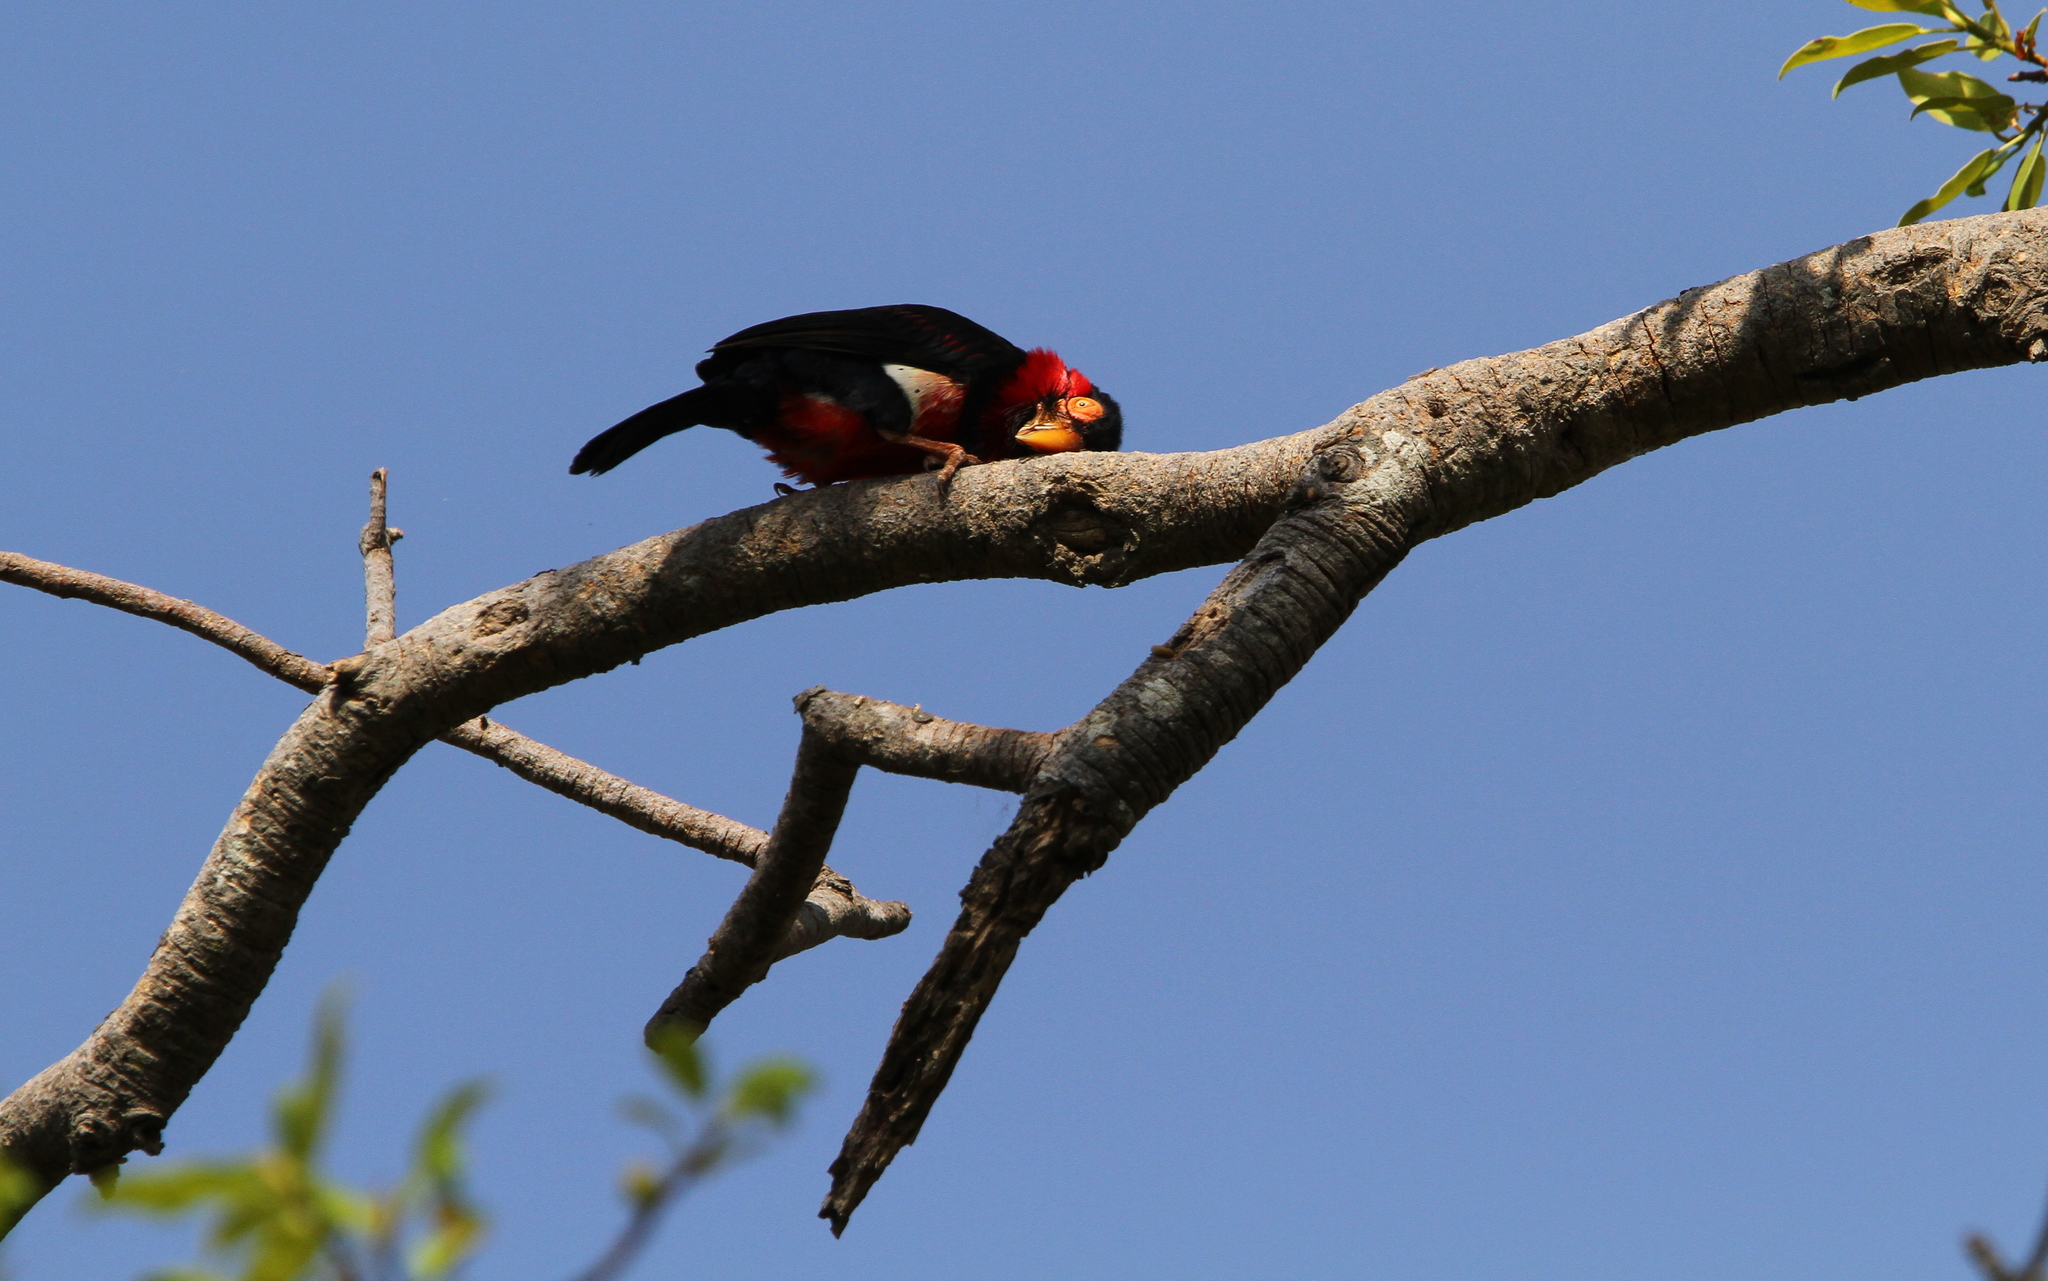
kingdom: Animalia
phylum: Chordata
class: Aves
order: Piciformes
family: Lybiidae
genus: Lybius
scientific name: Lybius dubius
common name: Bearded barbet
